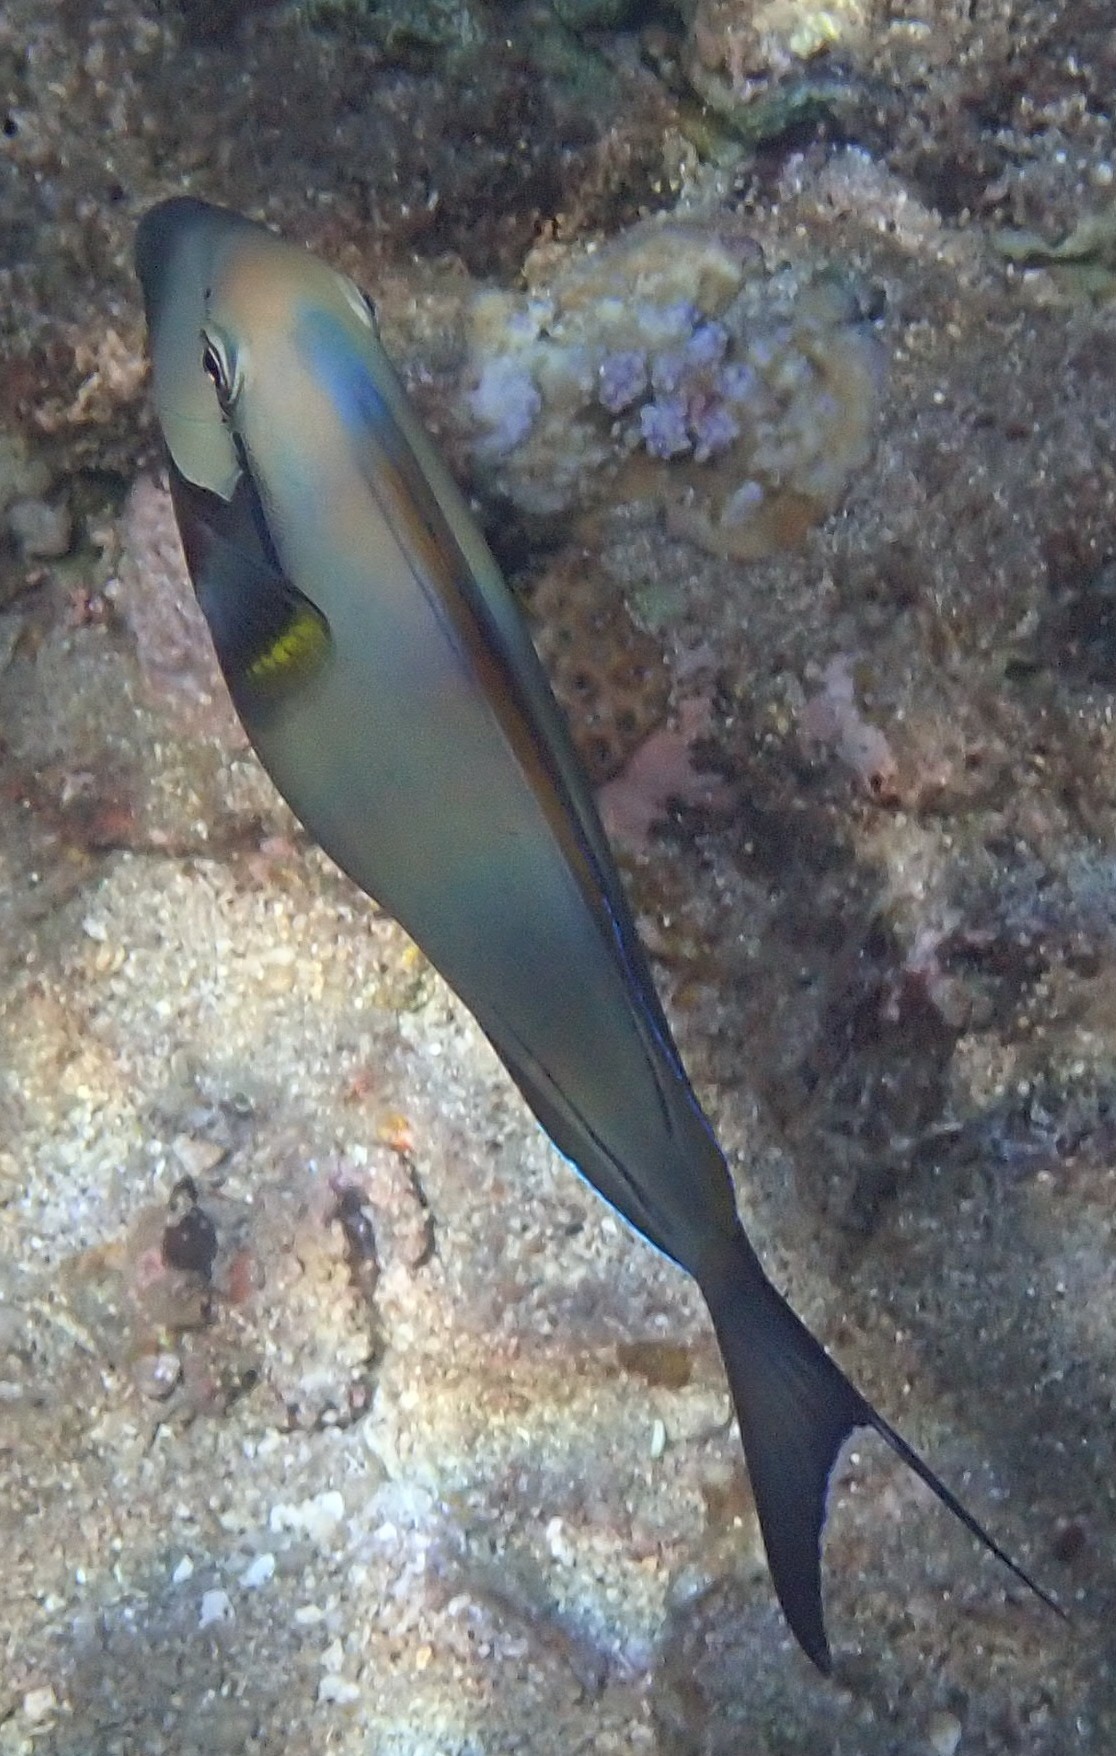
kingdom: Animalia
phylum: Chordata
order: Perciformes
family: Acanthuridae
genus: Acanthurus
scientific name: Acanthurus nigricauda
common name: Black-barred surgeonfish
